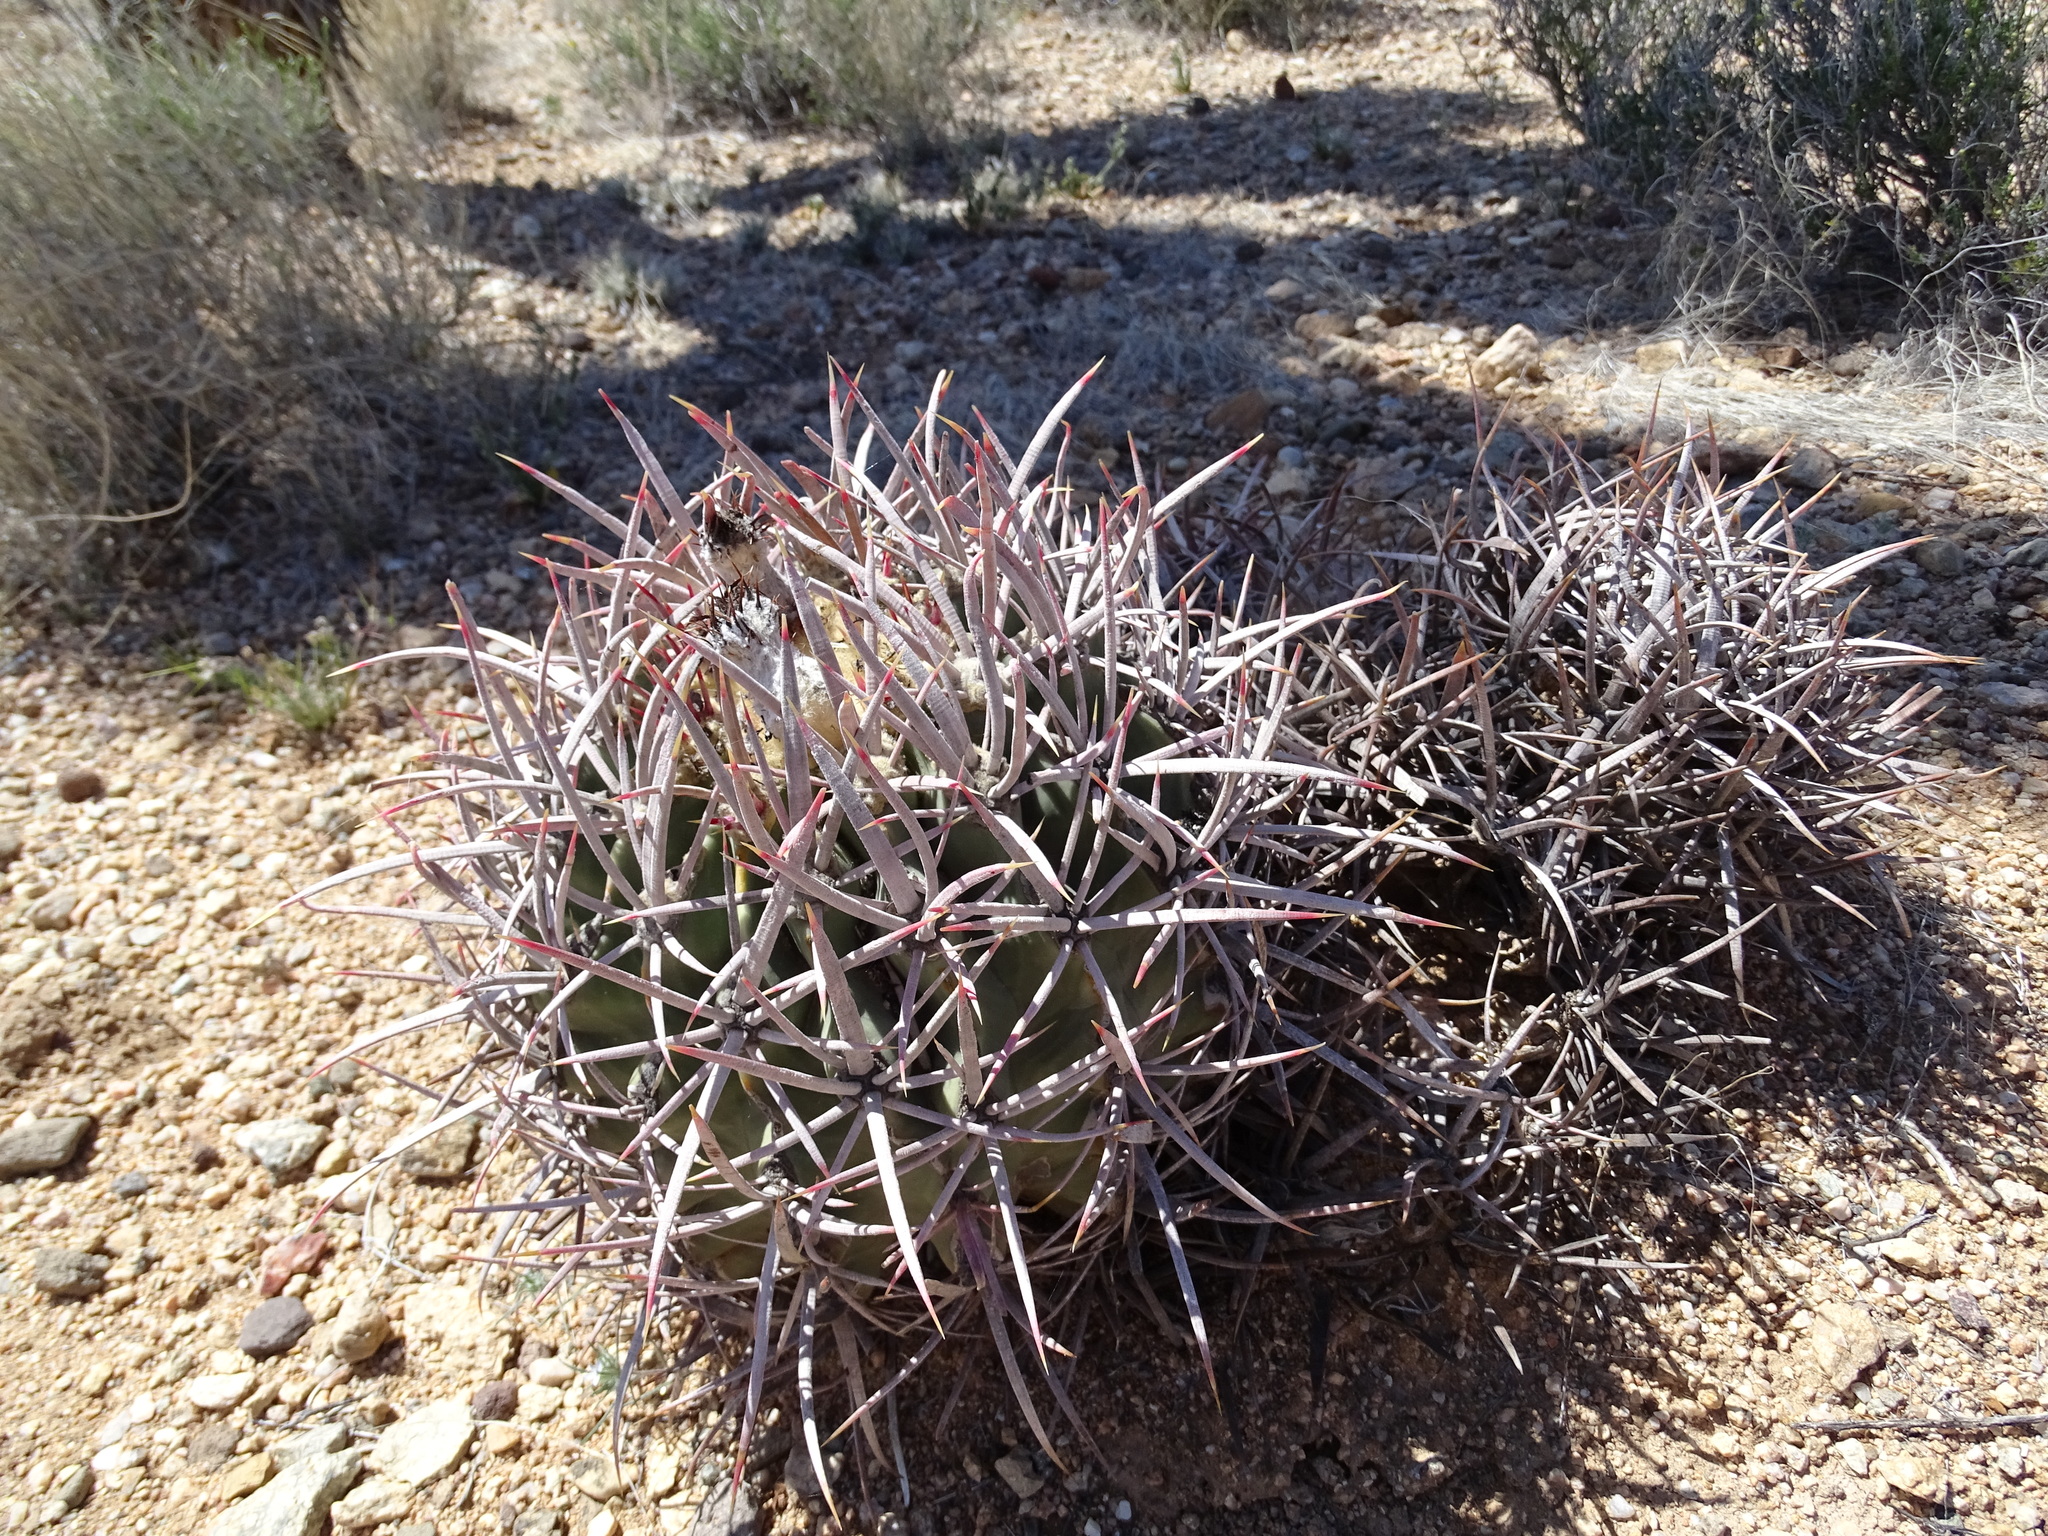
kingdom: Plantae
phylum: Tracheophyta
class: Magnoliopsida
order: Caryophyllales
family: Cactaceae
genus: Echinocactus
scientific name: Echinocactus polycephalus
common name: Cottontop cactus
